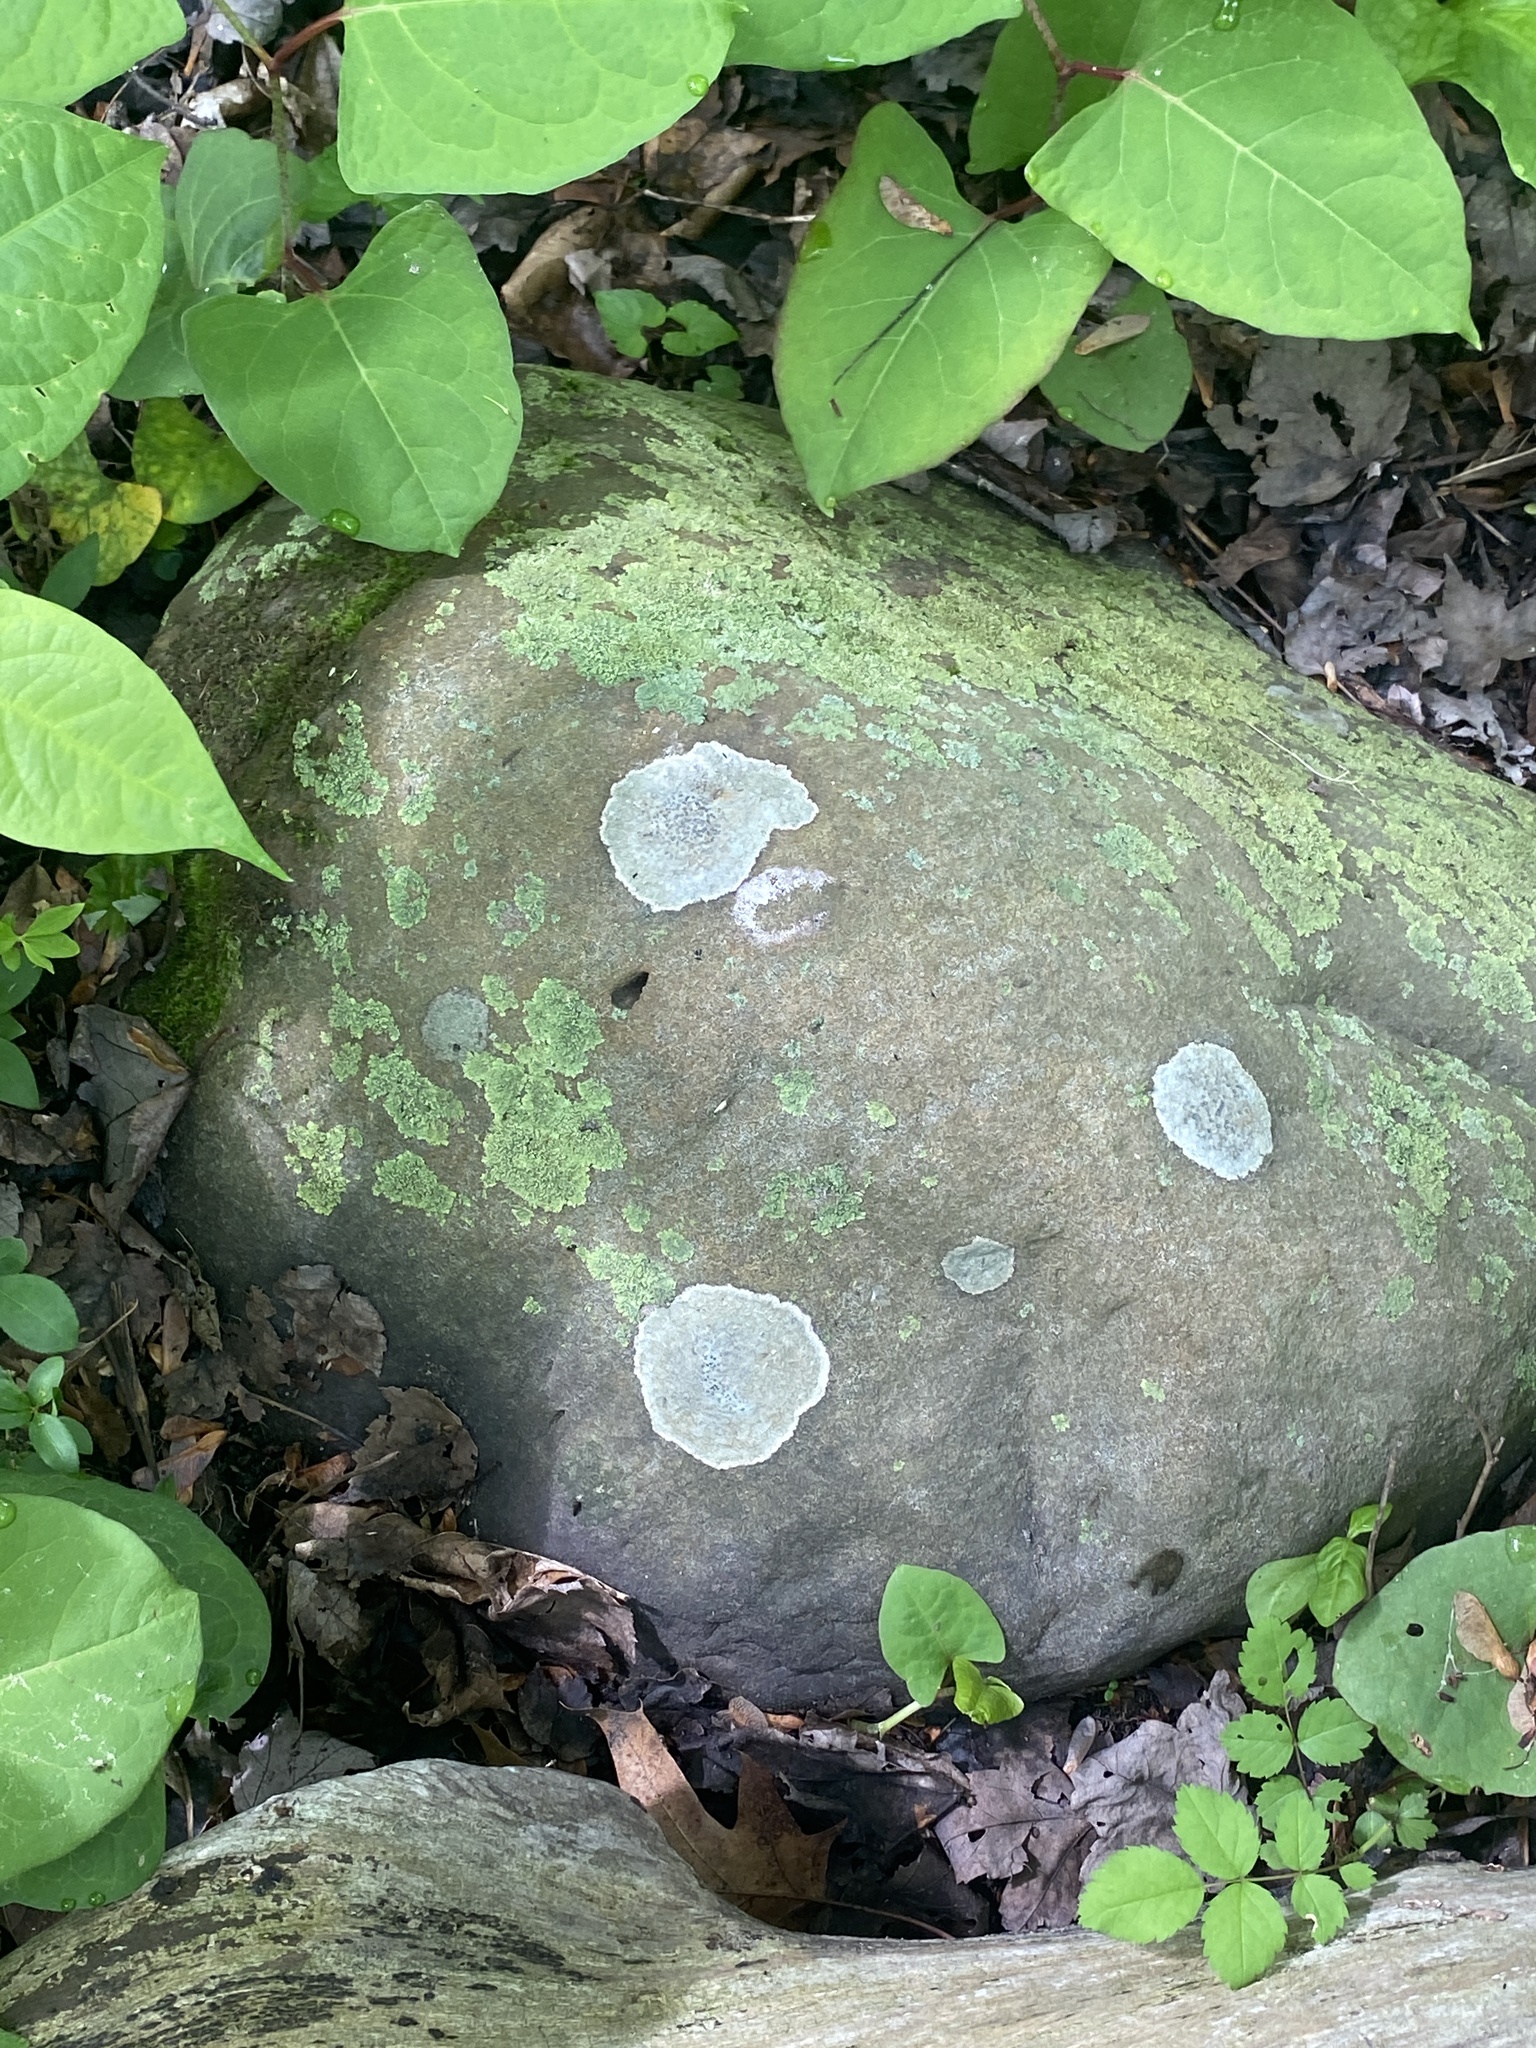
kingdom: Fungi
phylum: Ascomycota
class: Lecanoromycetes
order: Lecideales
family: Lecideaceae
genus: Porpidia
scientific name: Porpidia albocaerulescens
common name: Smokey-eyed boulder lichen
